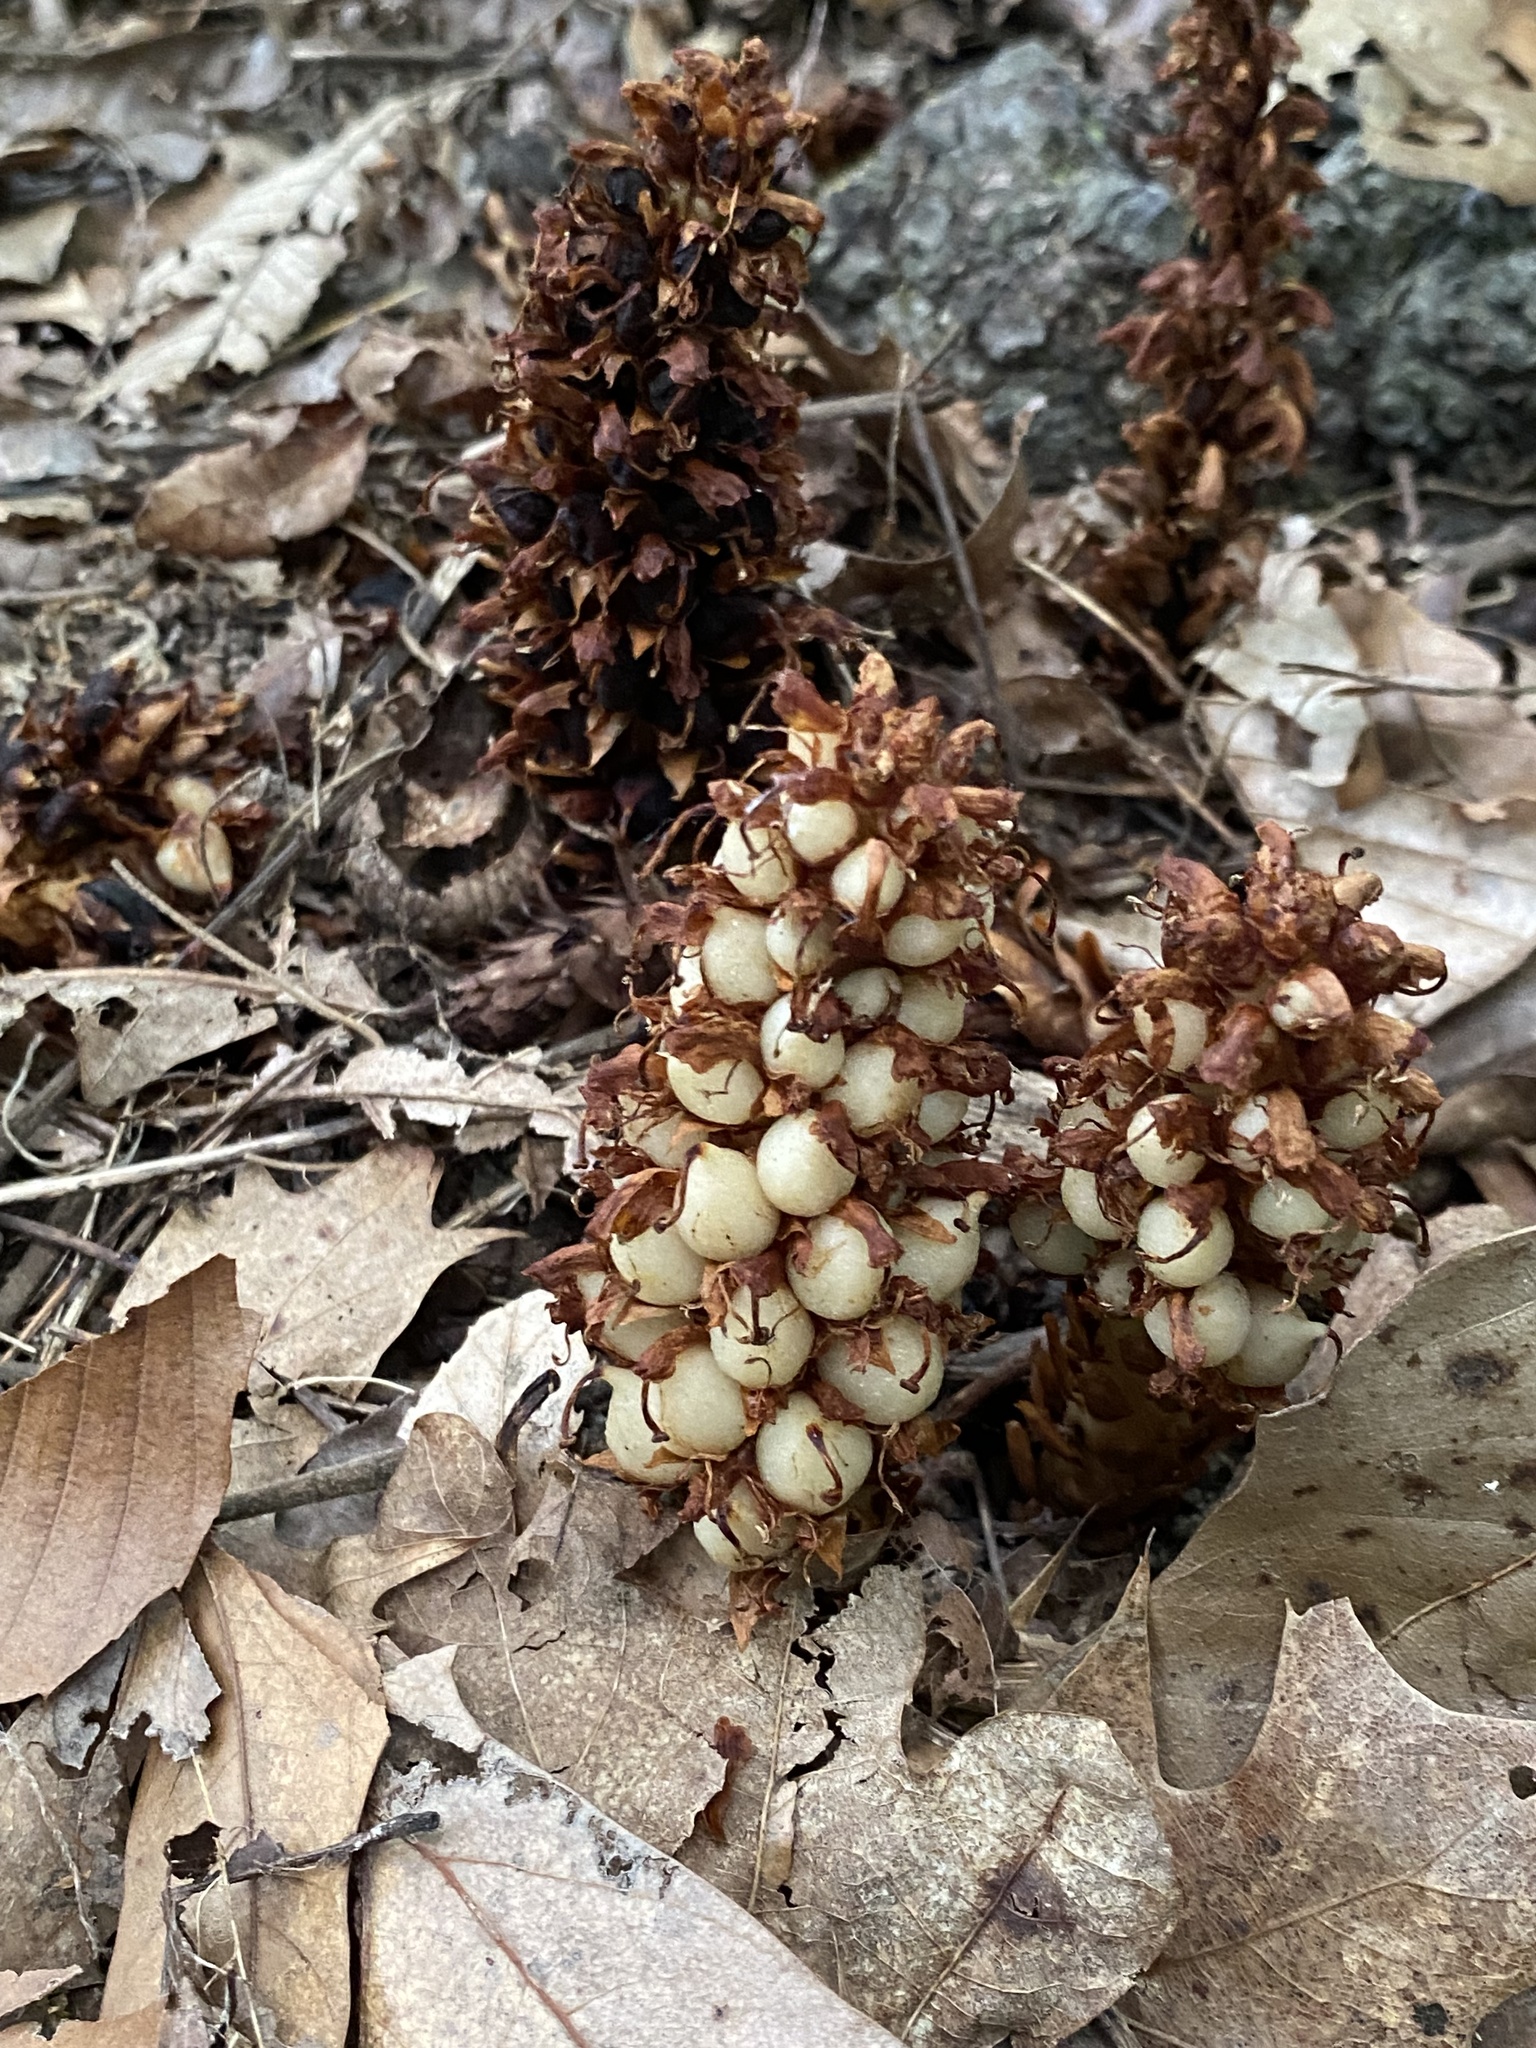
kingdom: Plantae
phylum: Tracheophyta
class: Magnoliopsida
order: Lamiales
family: Orobanchaceae
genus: Conopholis
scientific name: Conopholis americana
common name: American cancer-root
